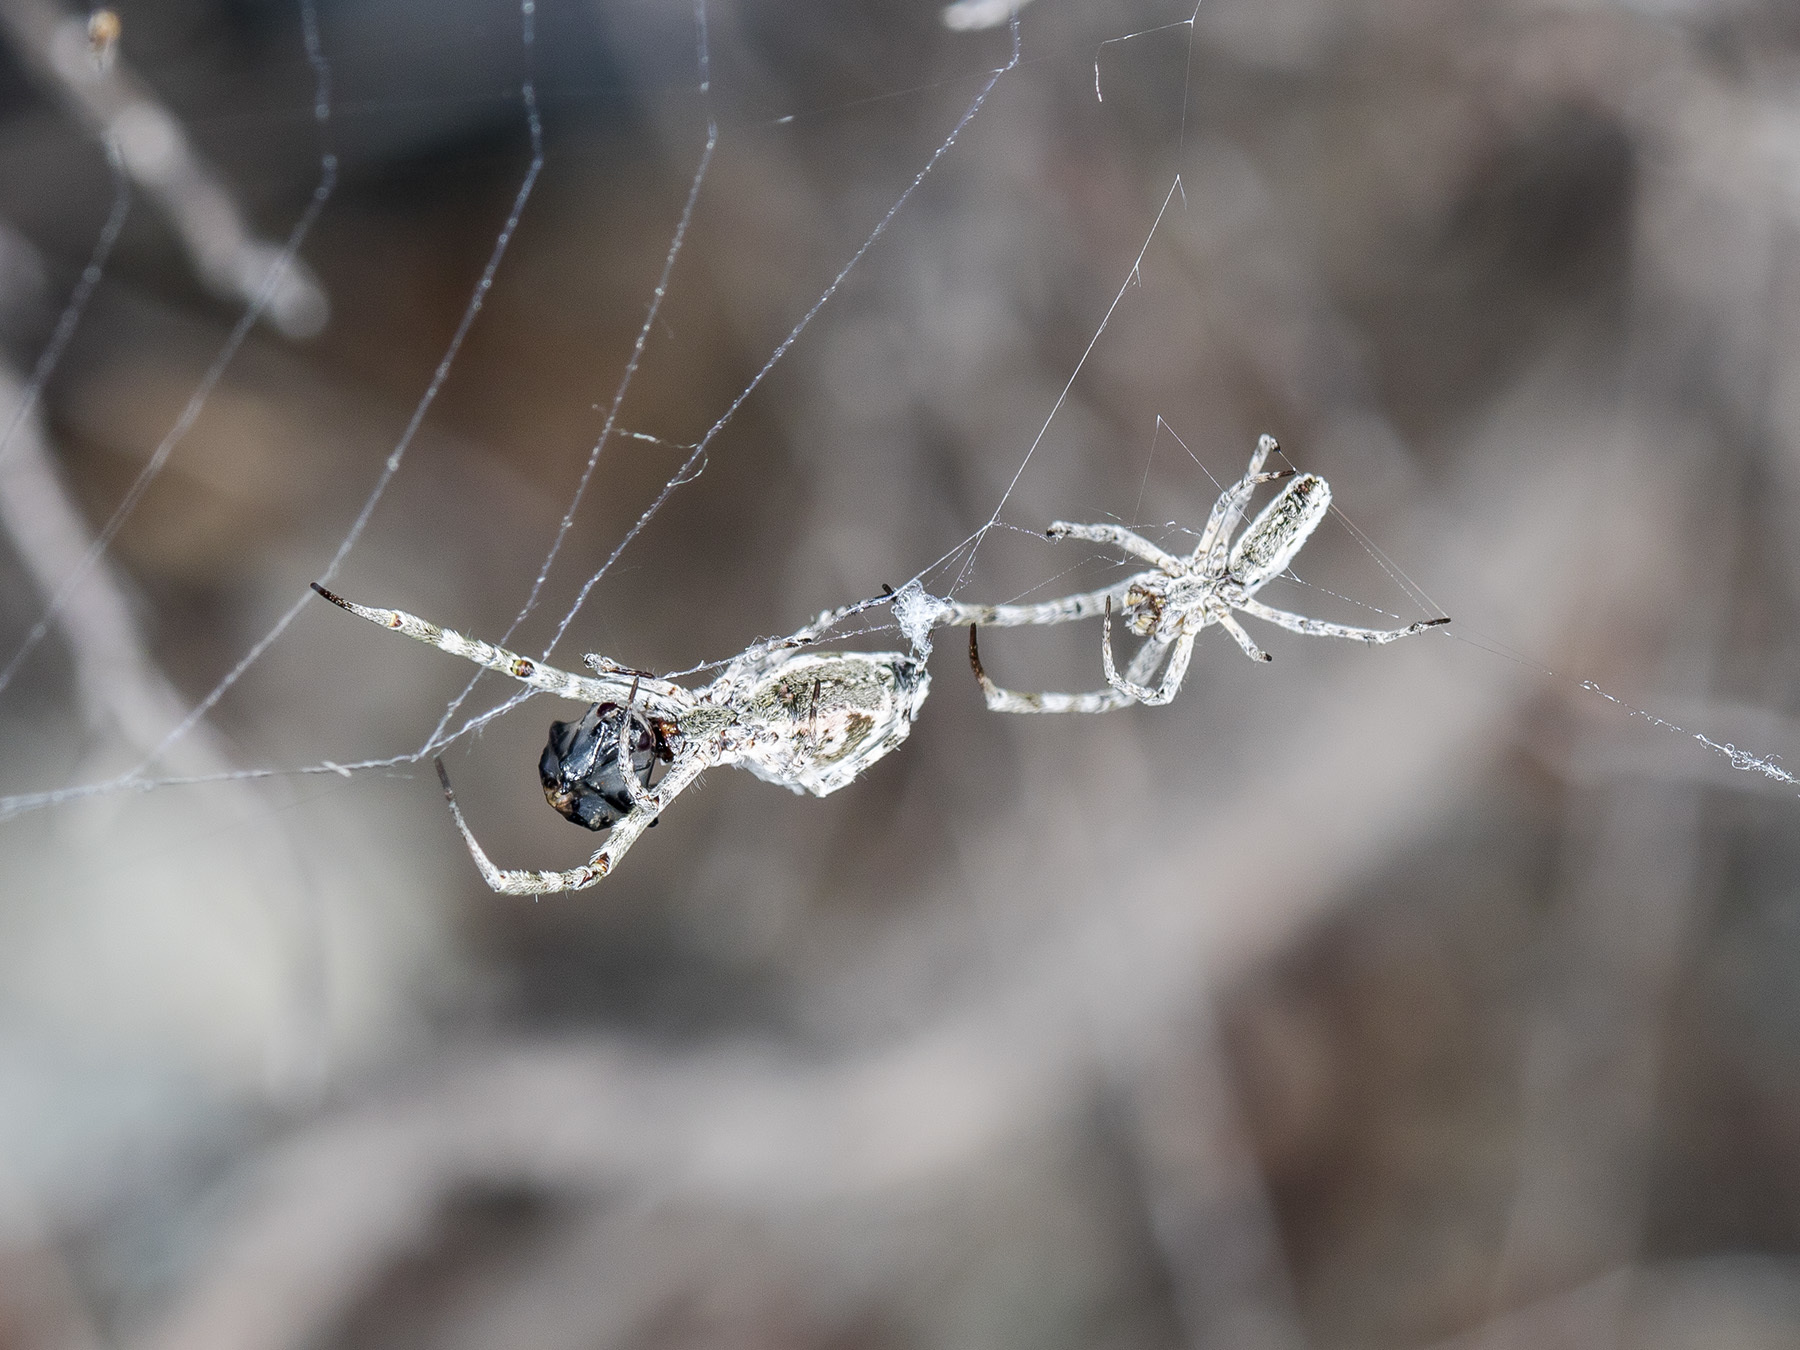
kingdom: Animalia
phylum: Arthropoda
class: Arachnida
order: Araneae
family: Uloboridae
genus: Uloborus
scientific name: Uloborus walckenaerius
